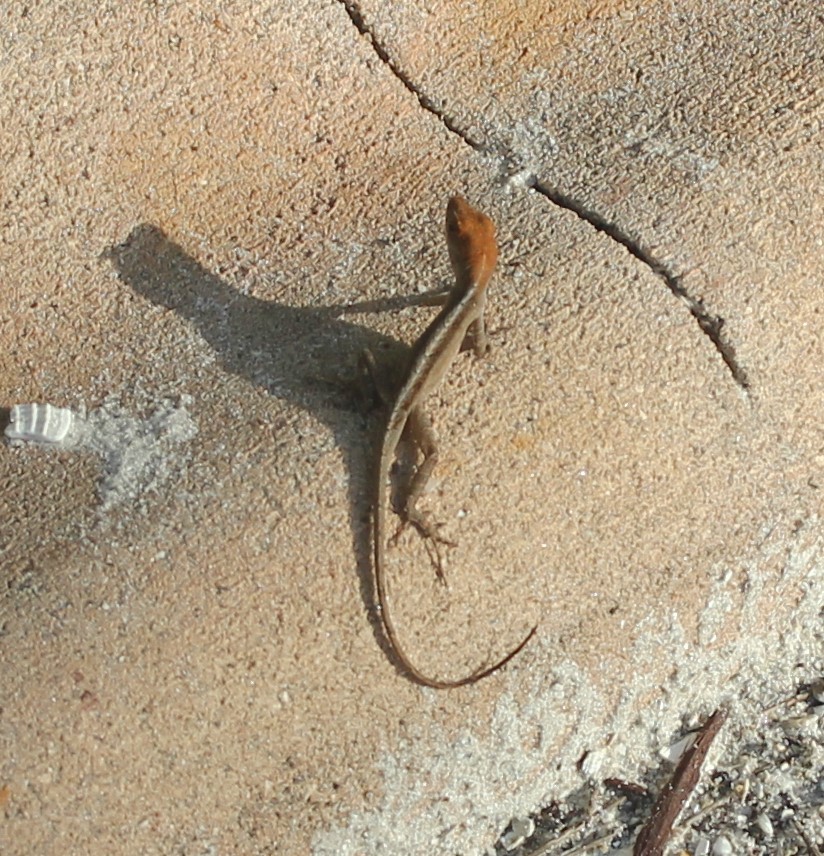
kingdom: Animalia
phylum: Chordata
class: Squamata
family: Dactyloidae
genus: Anolis
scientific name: Anolis sagrei
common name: Brown anole
